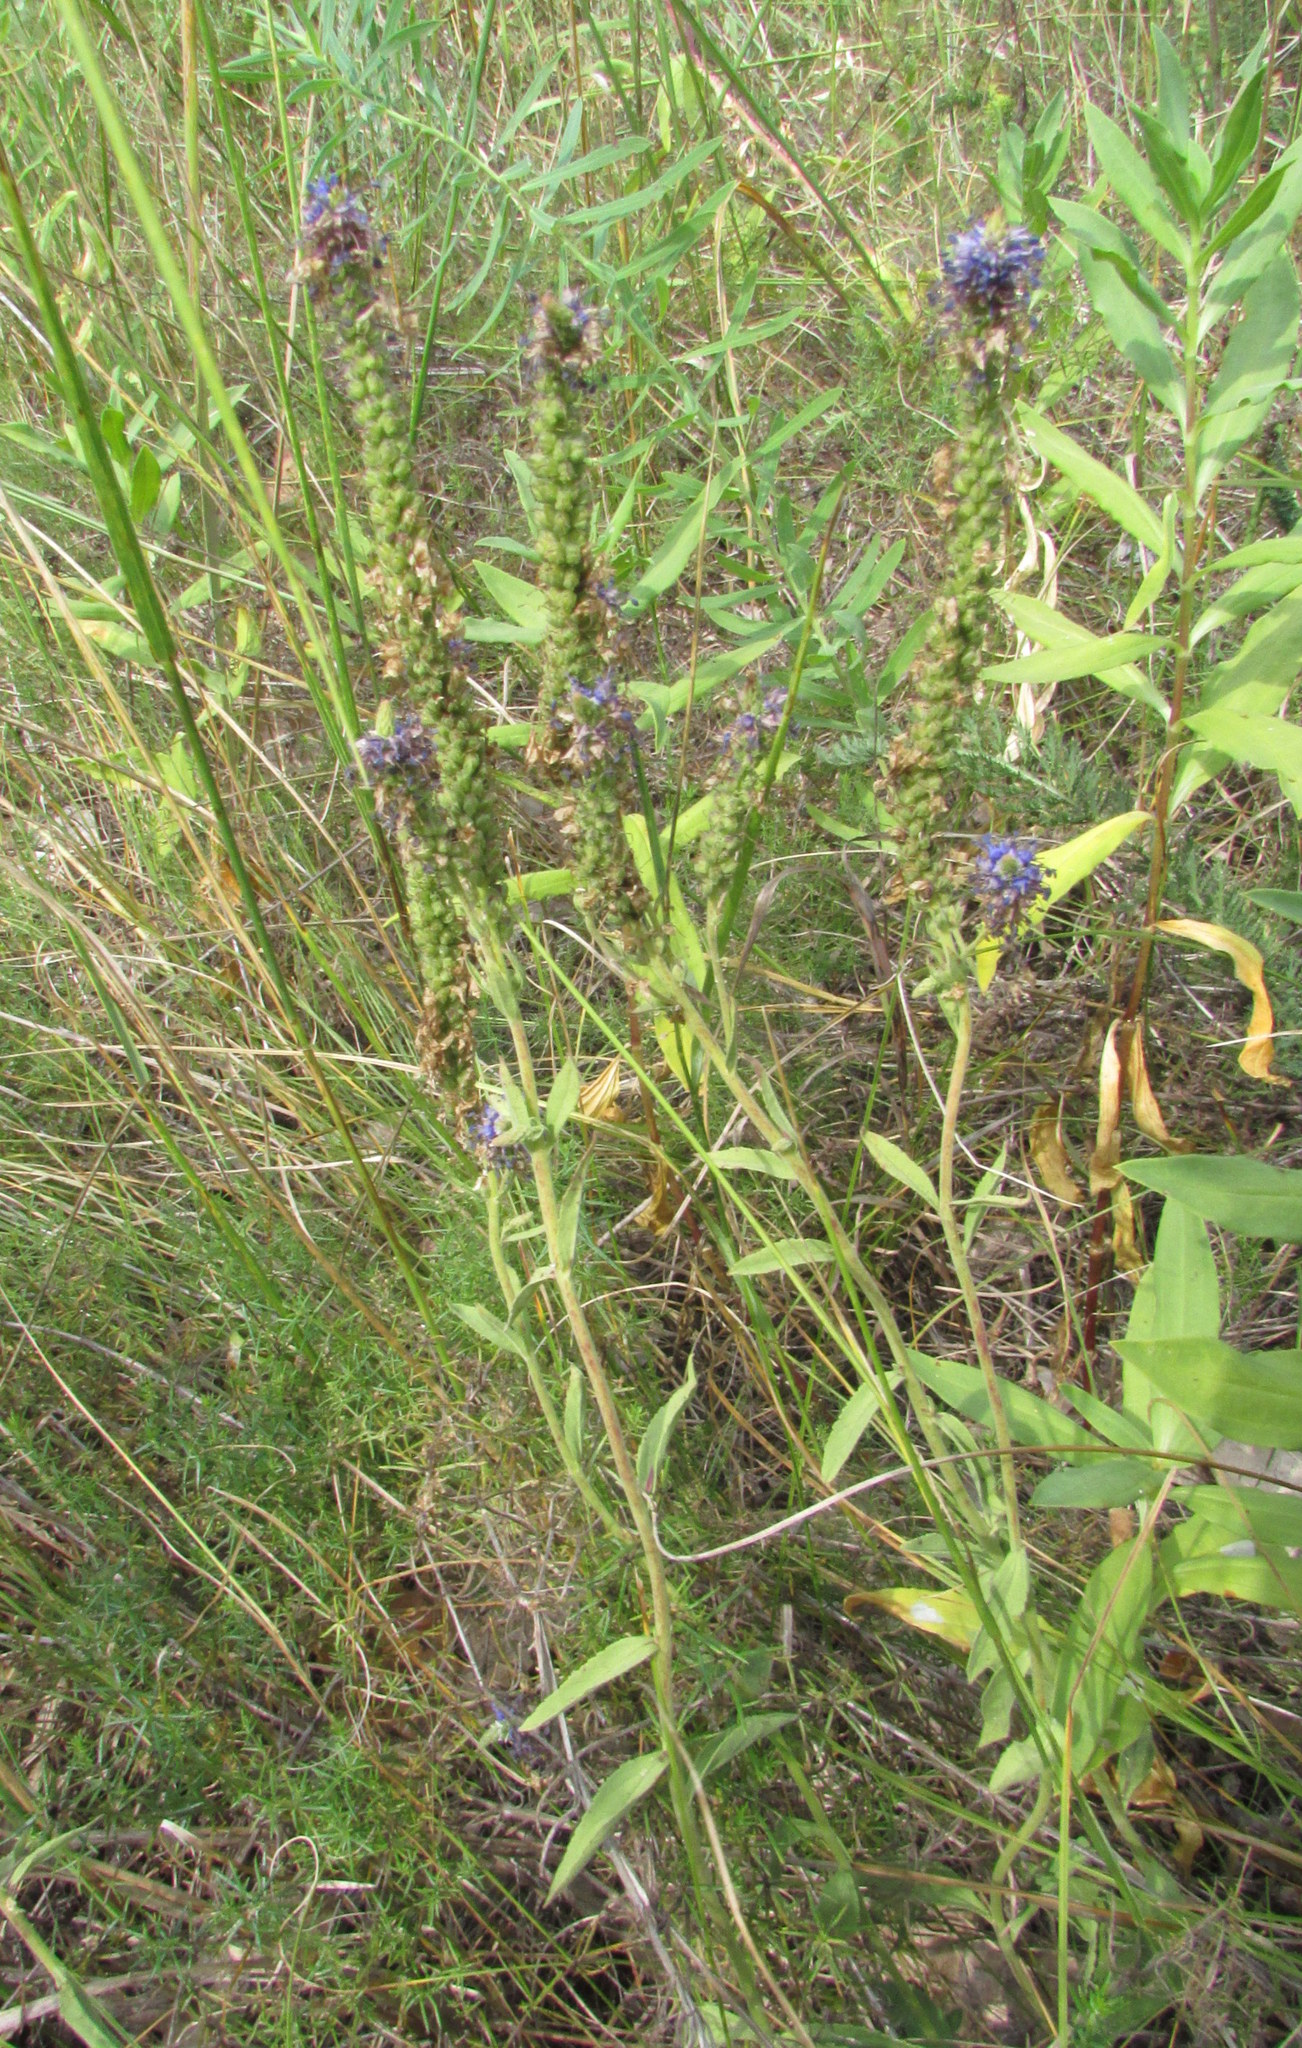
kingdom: Plantae
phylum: Tracheophyta
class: Magnoliopsida
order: Lamiales
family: Plantaginaceae
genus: Veronica
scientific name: Veronica spicata
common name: Spiked speedwell
